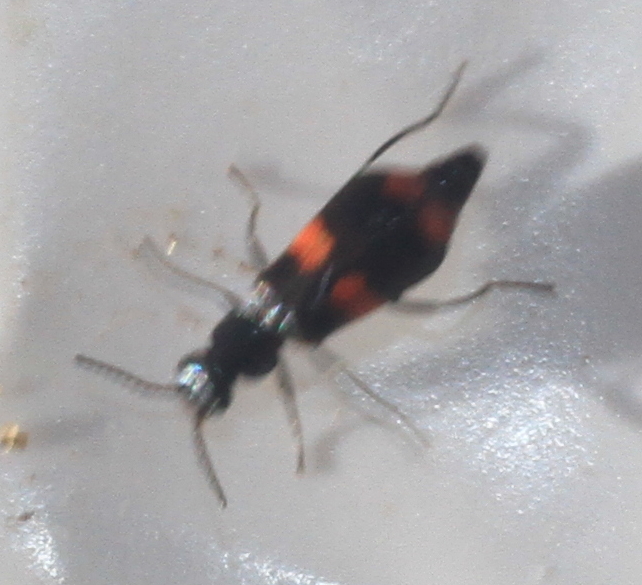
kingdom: Animalia
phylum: Arthropoda
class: Insecta
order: Coleoptera
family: Melyridae
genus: Anthocomus
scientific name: Anthocomus fasciatus
